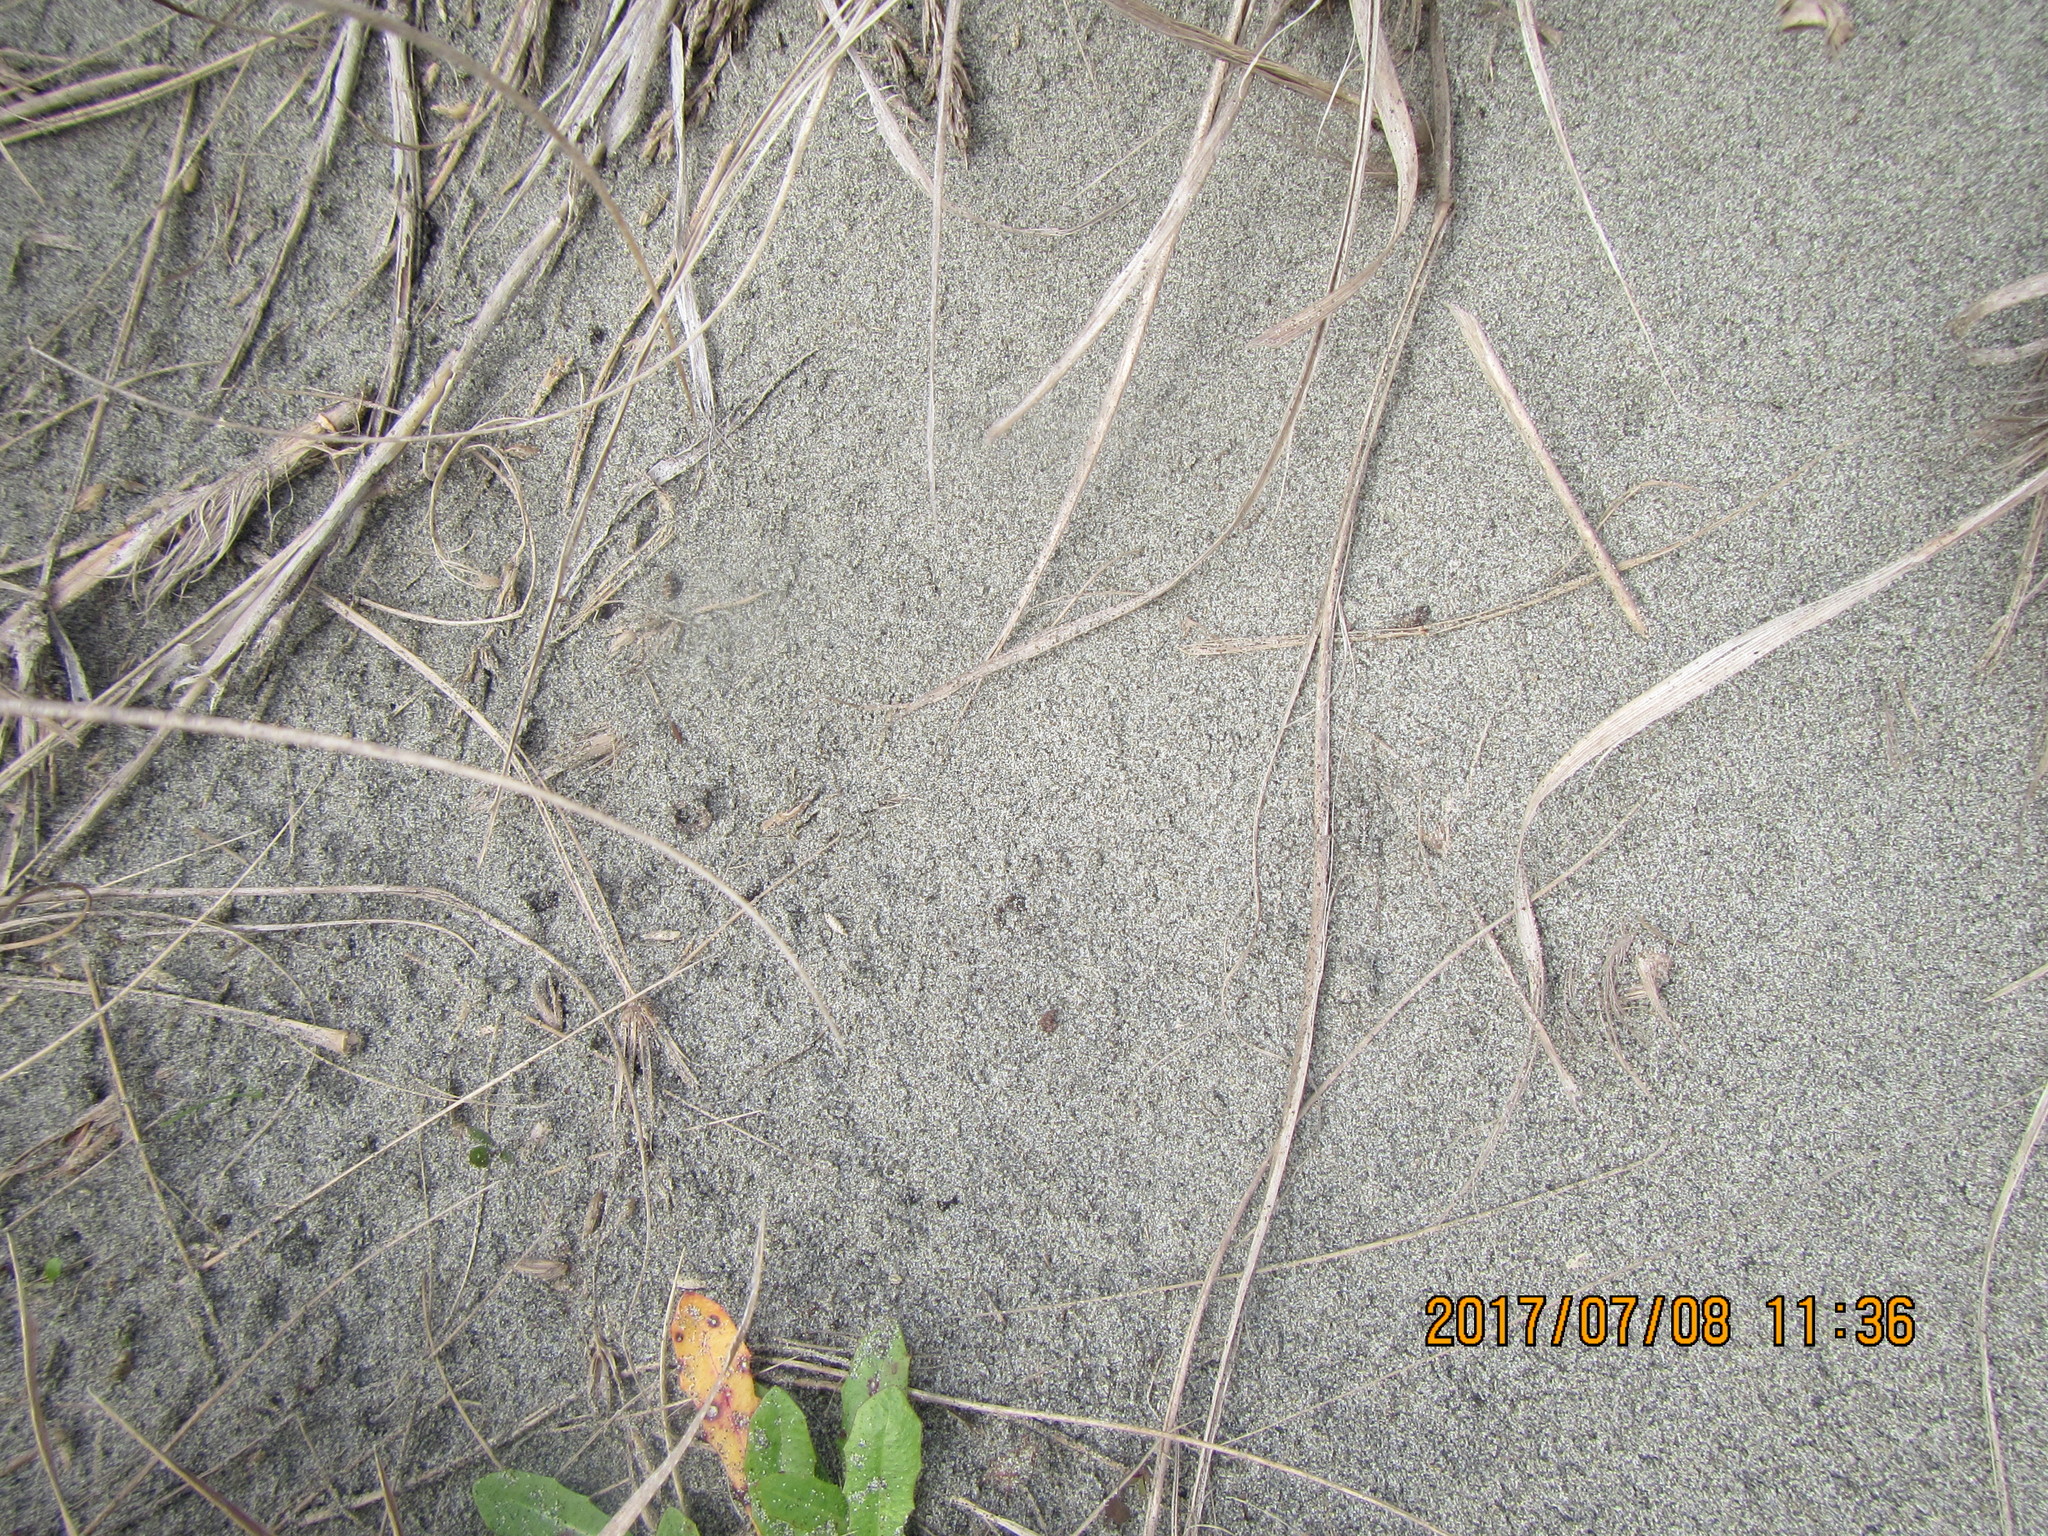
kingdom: Animalia
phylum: Arthropoda
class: Arachnida
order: Araneae
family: Lycosidae
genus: Anoteropsis
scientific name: Anoteropsis litoralis
